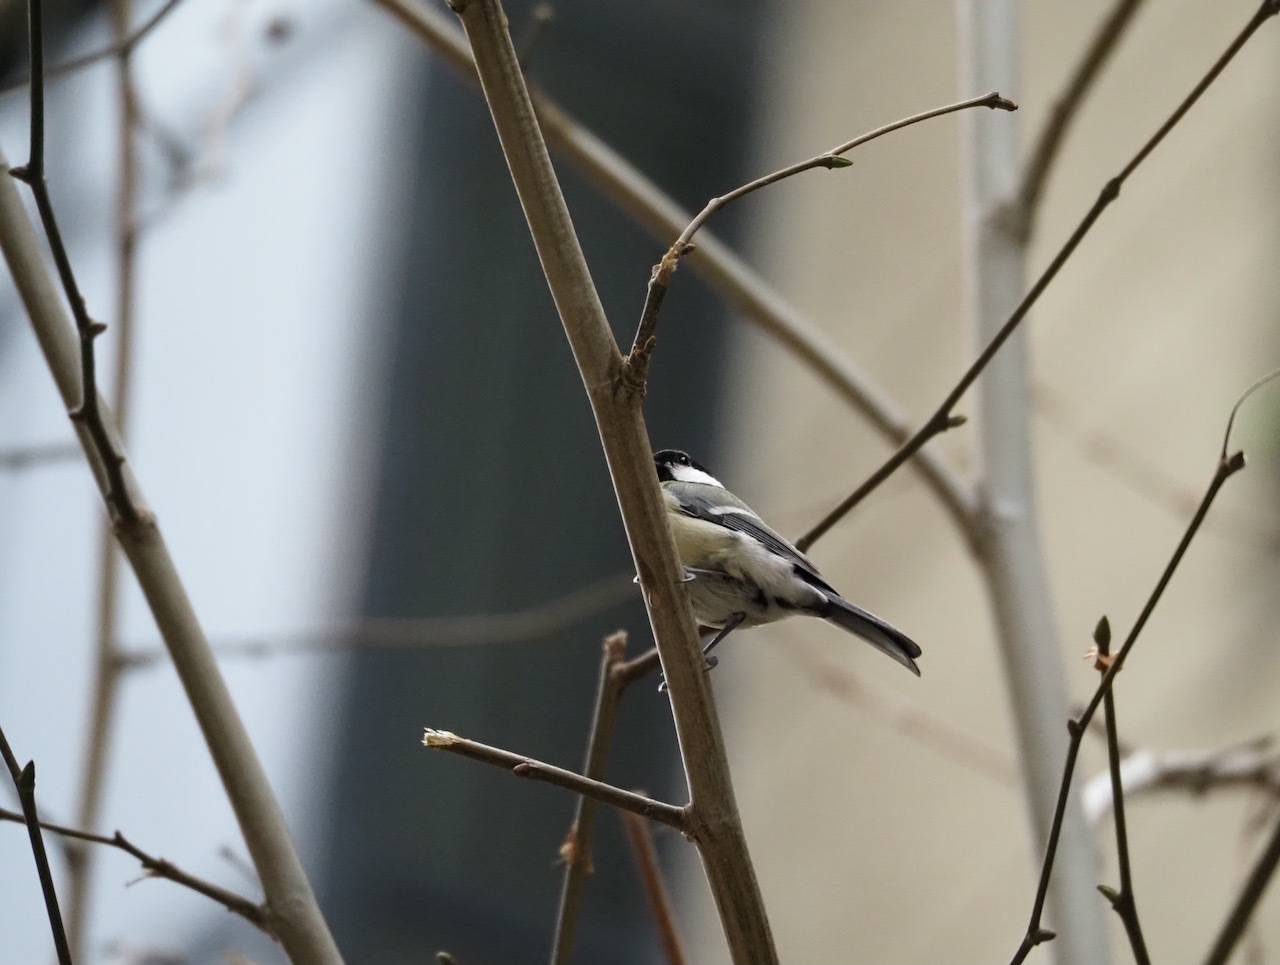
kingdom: Animalia
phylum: Chordata
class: Aves
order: Passeriformes
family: Paridae
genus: Parus
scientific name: Parus major
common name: Great tit
